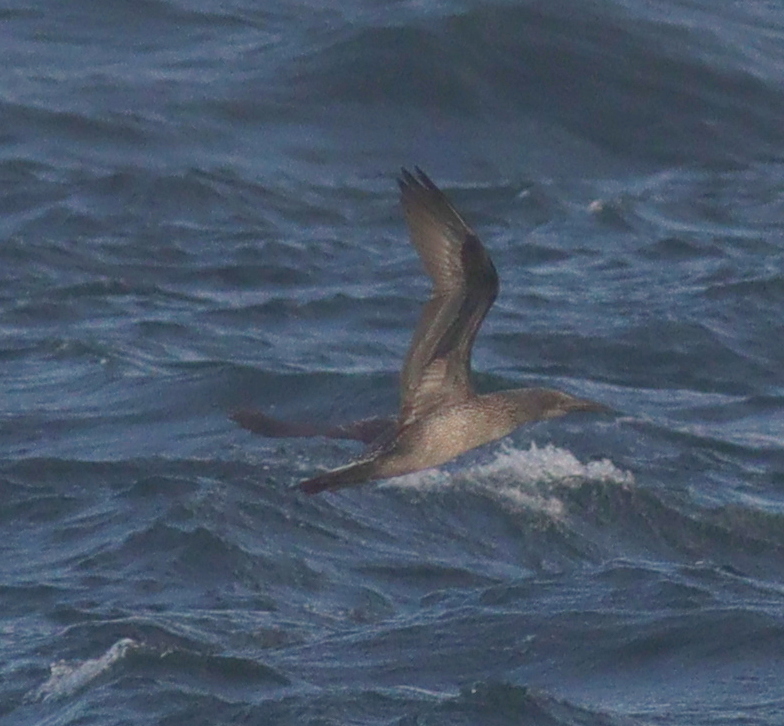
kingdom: Animalia
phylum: Chordata
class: Aves
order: Suliformes
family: Sulidae
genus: Morus
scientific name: Morus bassanus
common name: Northern gannet
